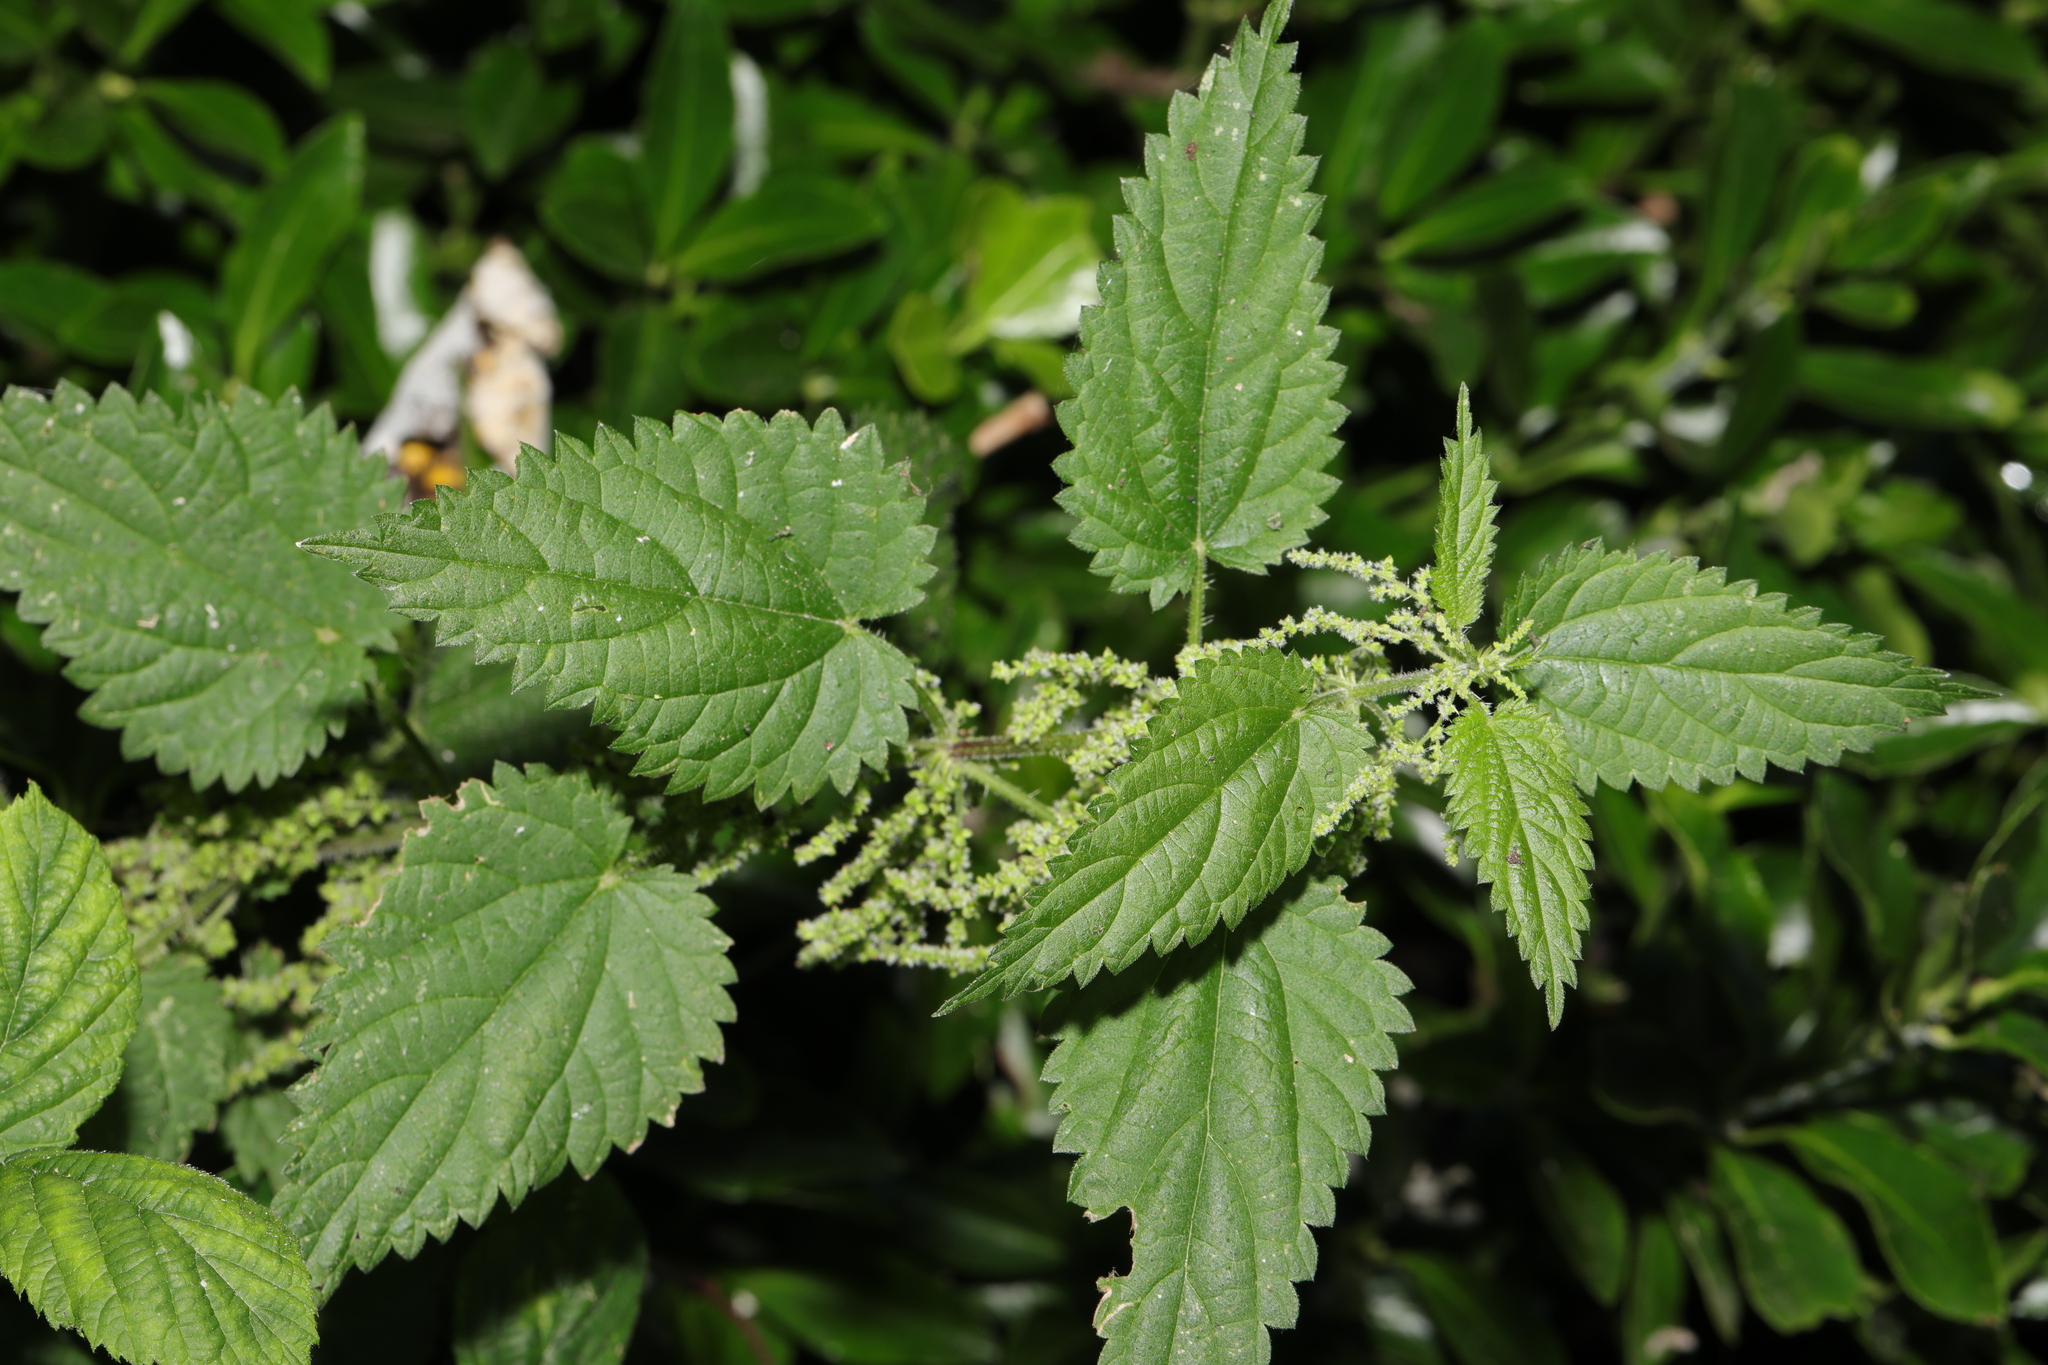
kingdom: Plantae
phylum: Tracheophyta
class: Magnoliopsida
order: Rosales
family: Urticaceae
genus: Urtica
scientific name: Urtica dioica
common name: Common nettle
